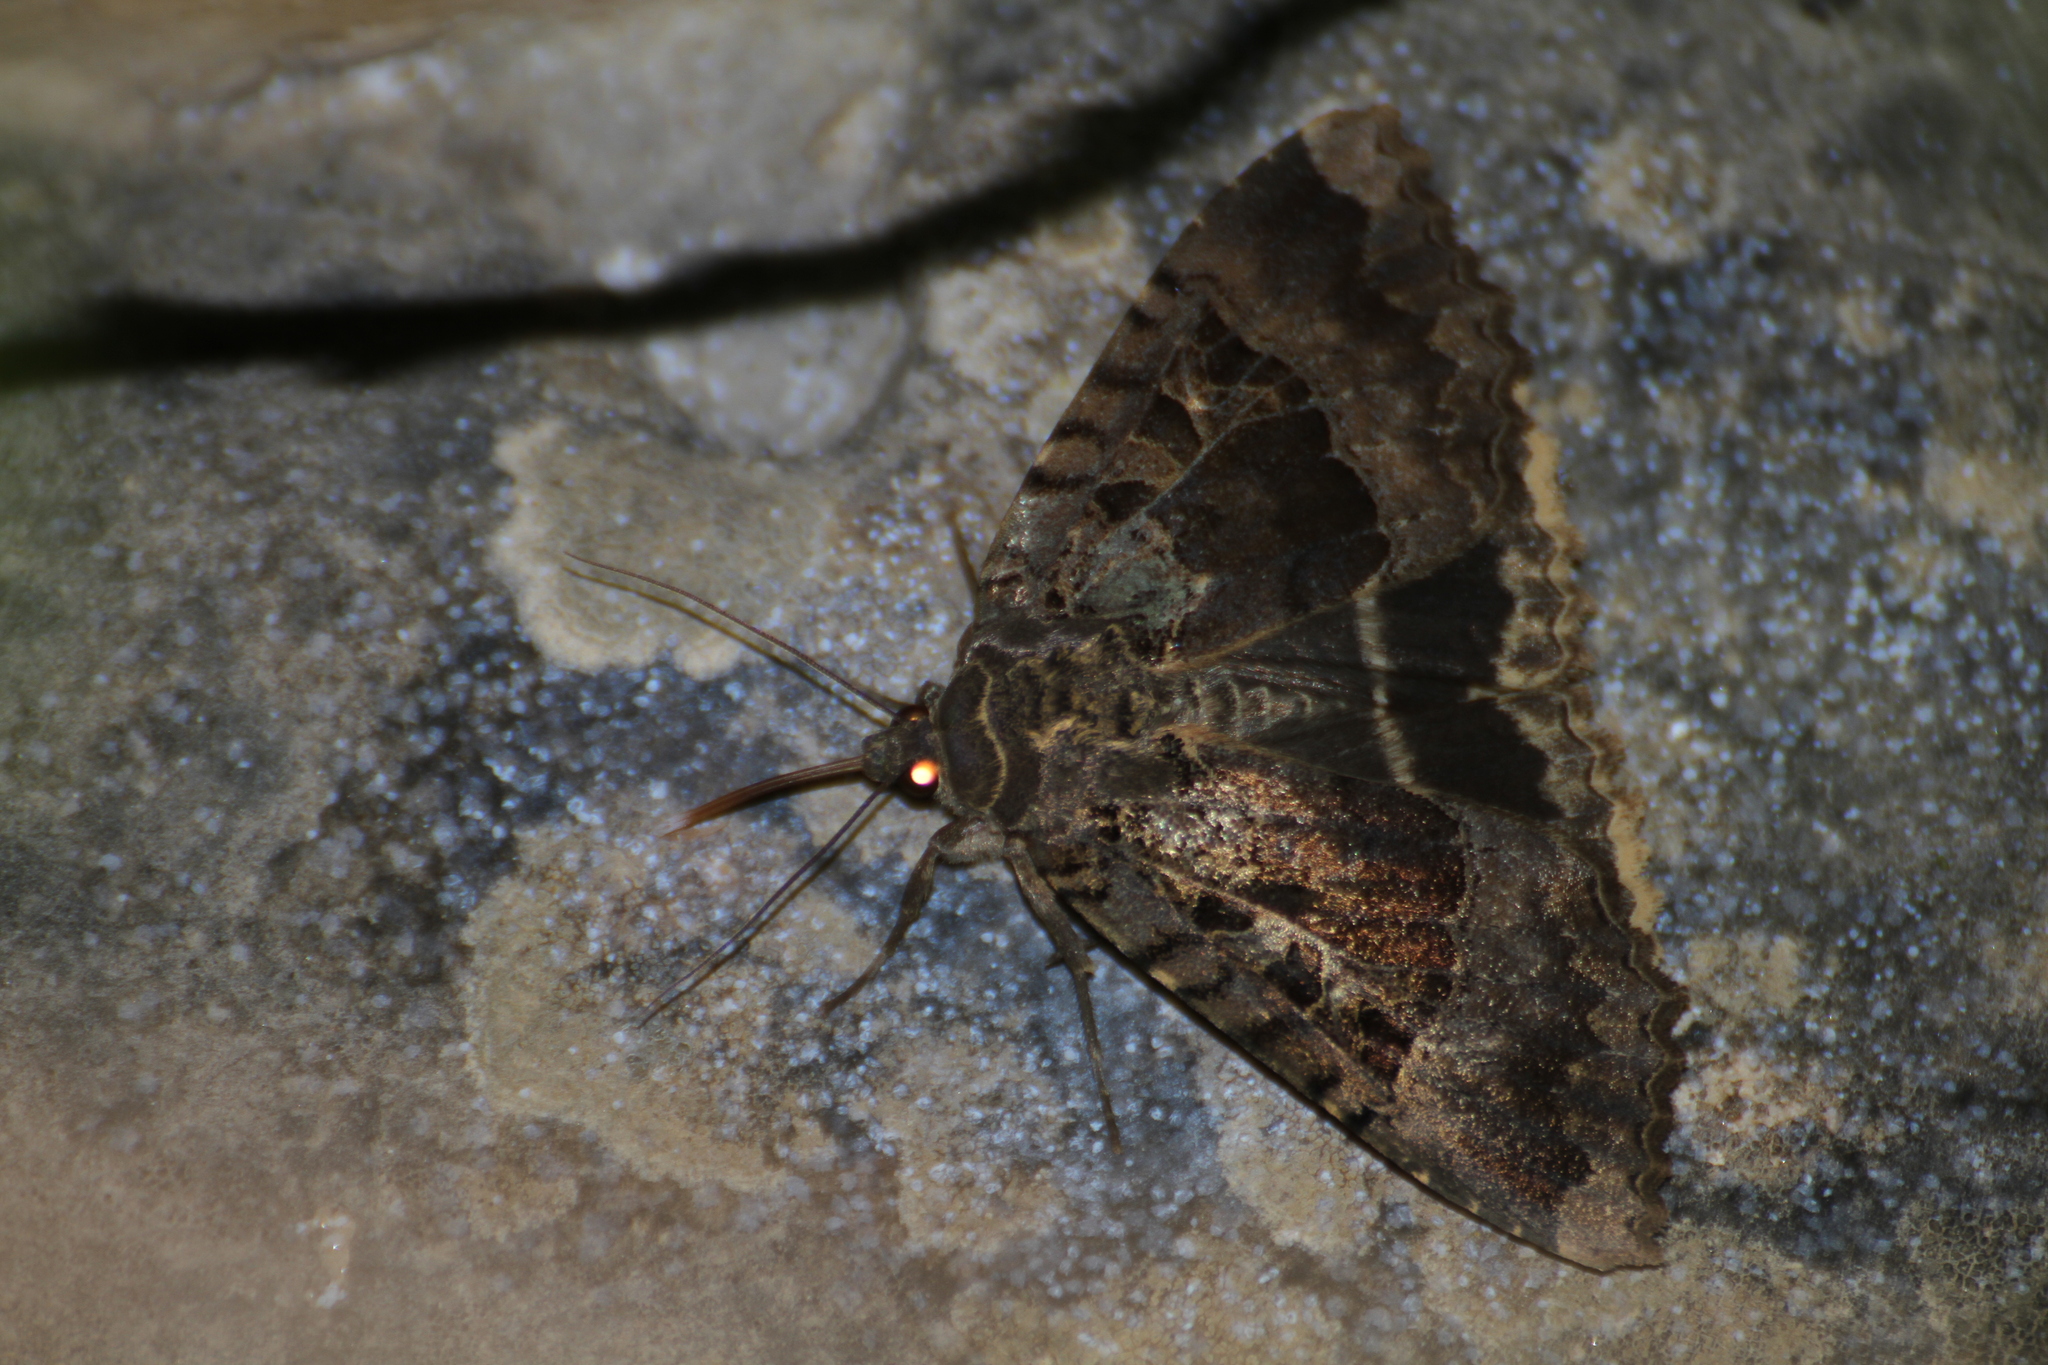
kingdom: Animalia
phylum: Arthropoda
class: Insecta
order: Lepidoptera
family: Noctuidae
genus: Mormo
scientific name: Mormo maura
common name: Old lady
